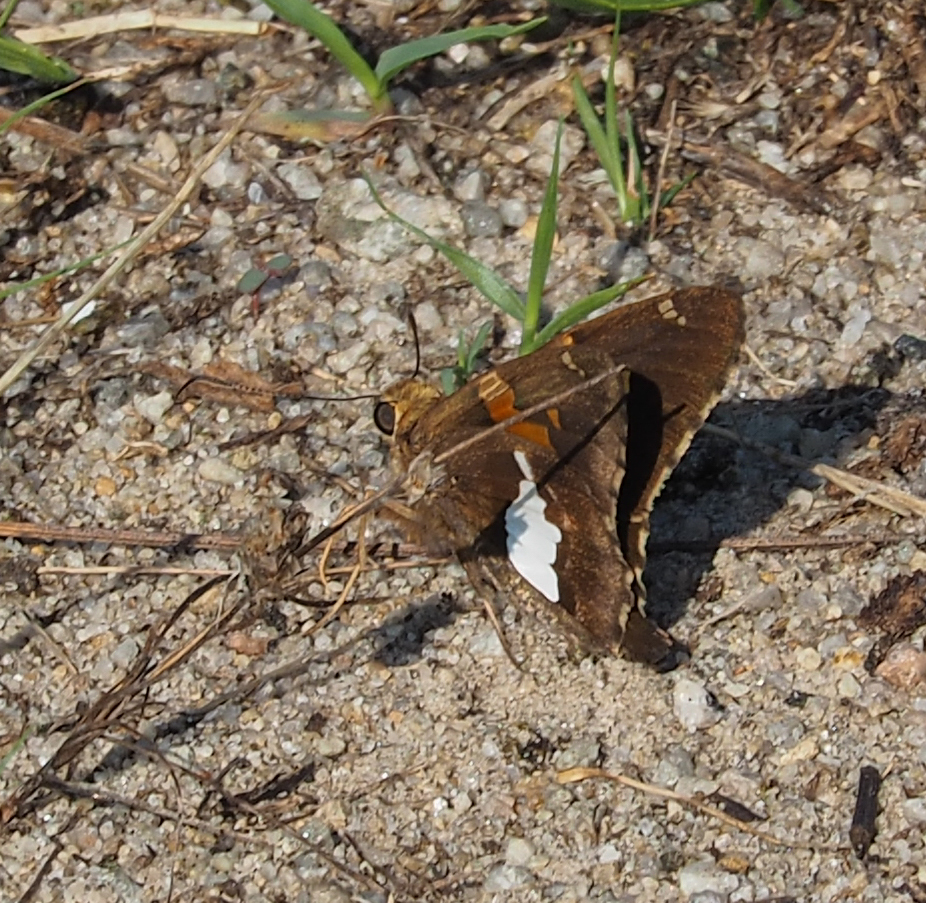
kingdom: Animalia
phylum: Arthropoda
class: Insecta
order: Lepidoptera
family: Hesperiidae
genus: Epargyreus
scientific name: Epargyreus clarus
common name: Silver-spotted skipper
